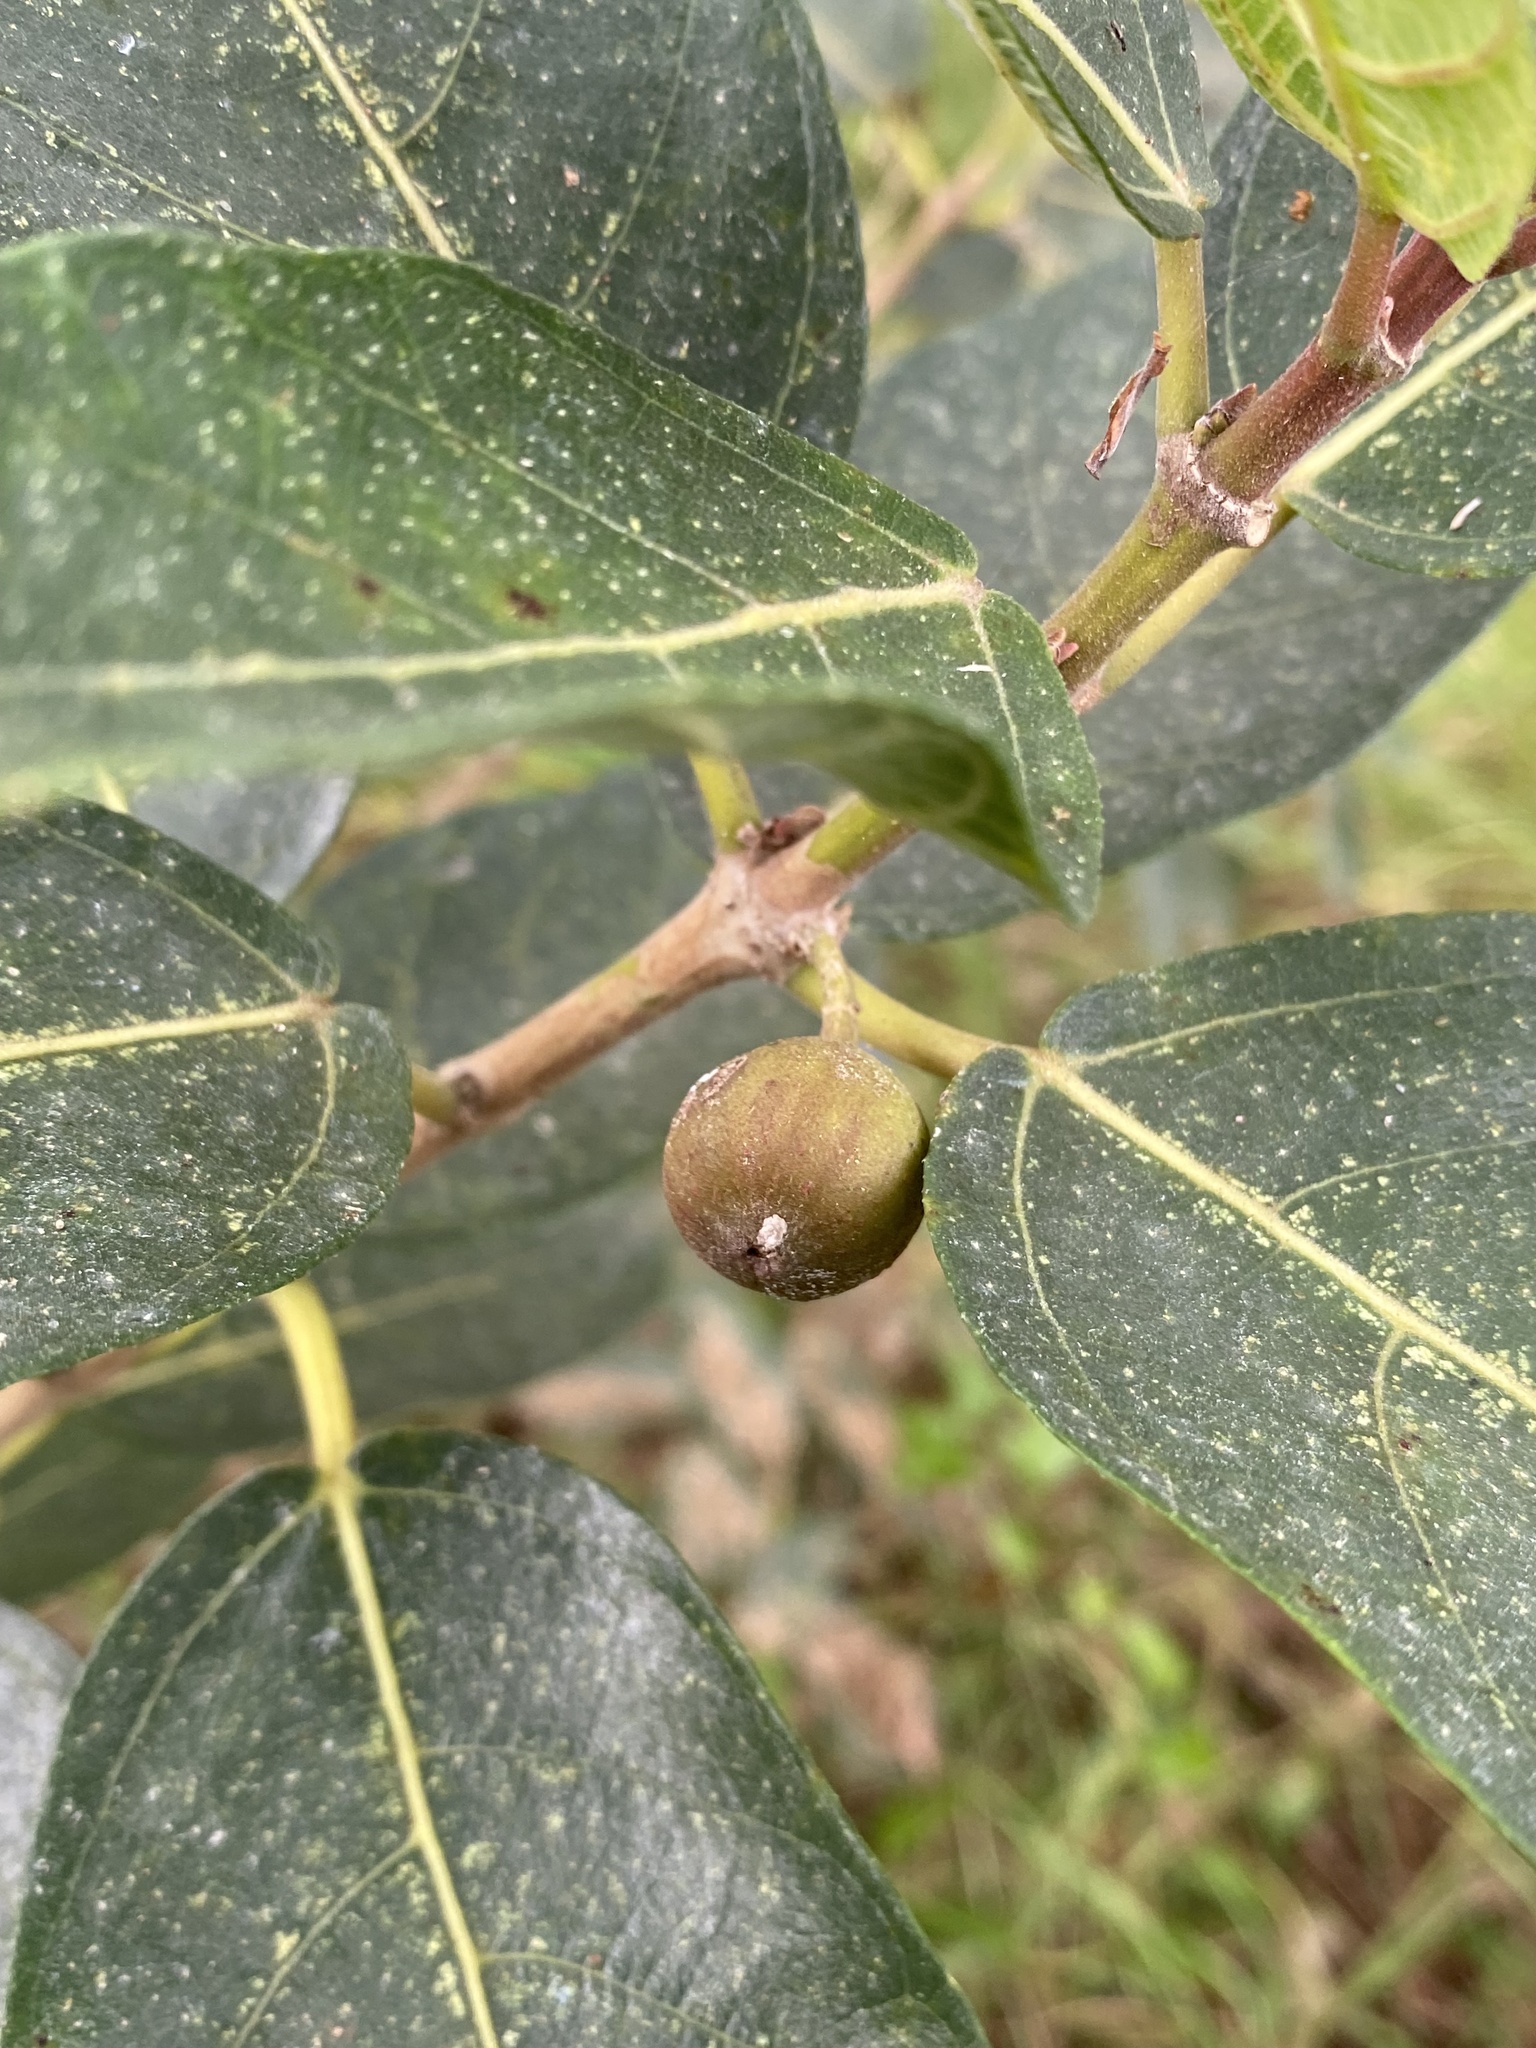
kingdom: Plantae
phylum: Tracheophyta
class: Magnoliopsida
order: Rosales
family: Moraceae
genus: Ficus
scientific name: Ficus opposita
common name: Figwood
